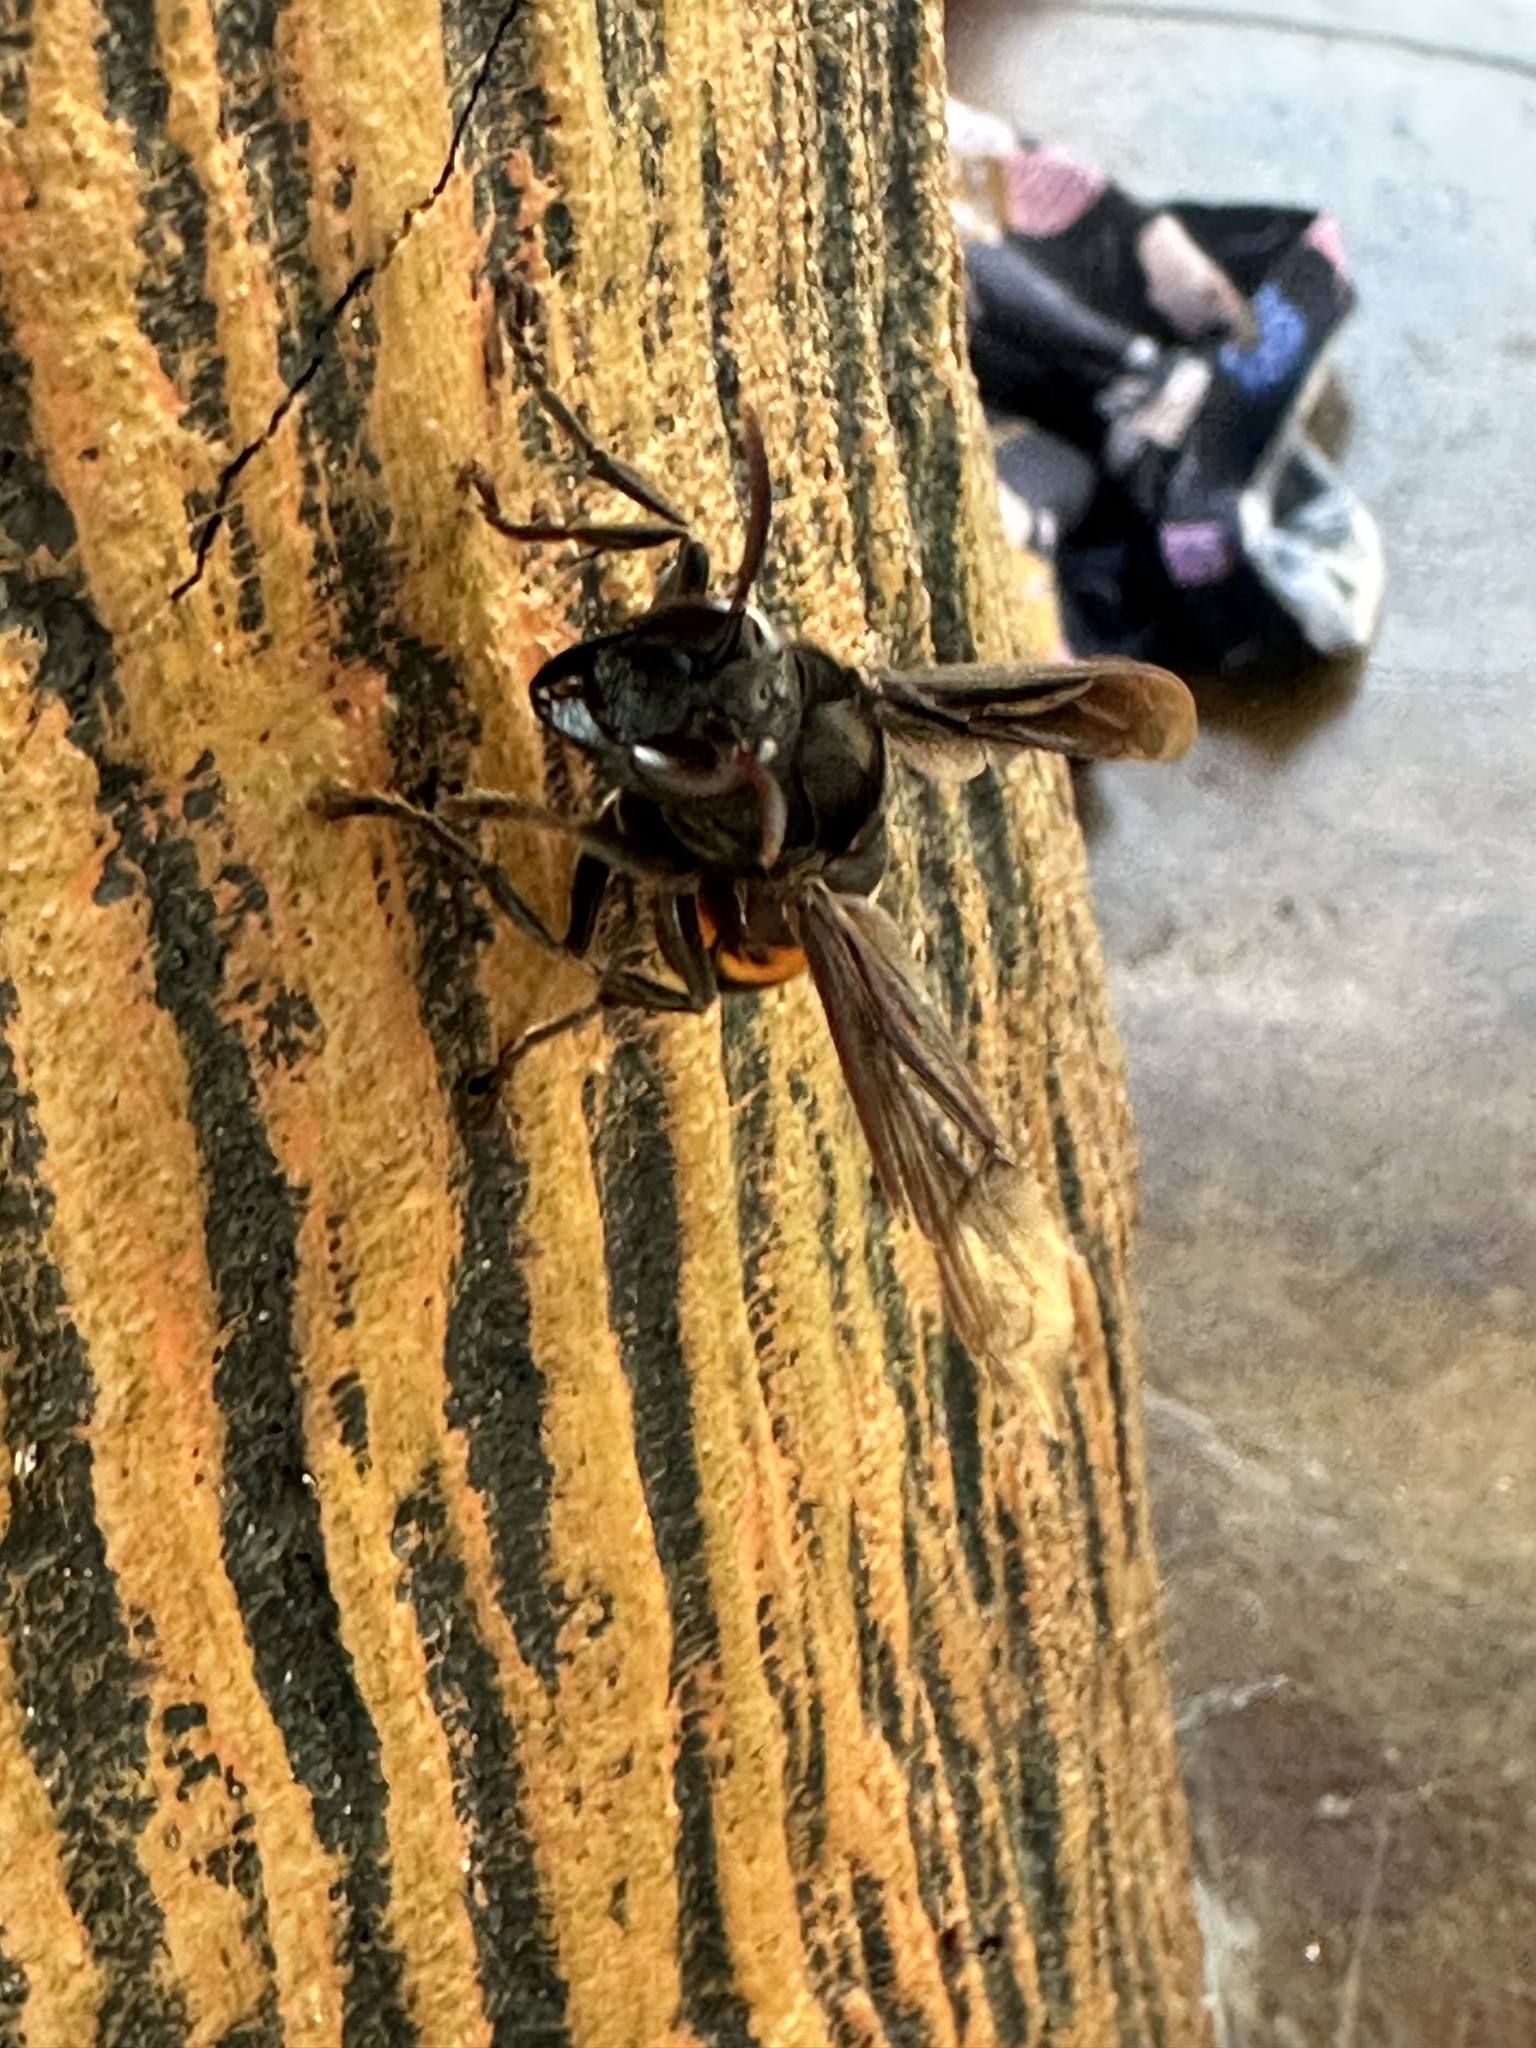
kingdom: Animalia
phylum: Arthropoda
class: Insecta
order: Hymenoptera
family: Vespidae
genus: Vespa
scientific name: Vespa tropica
